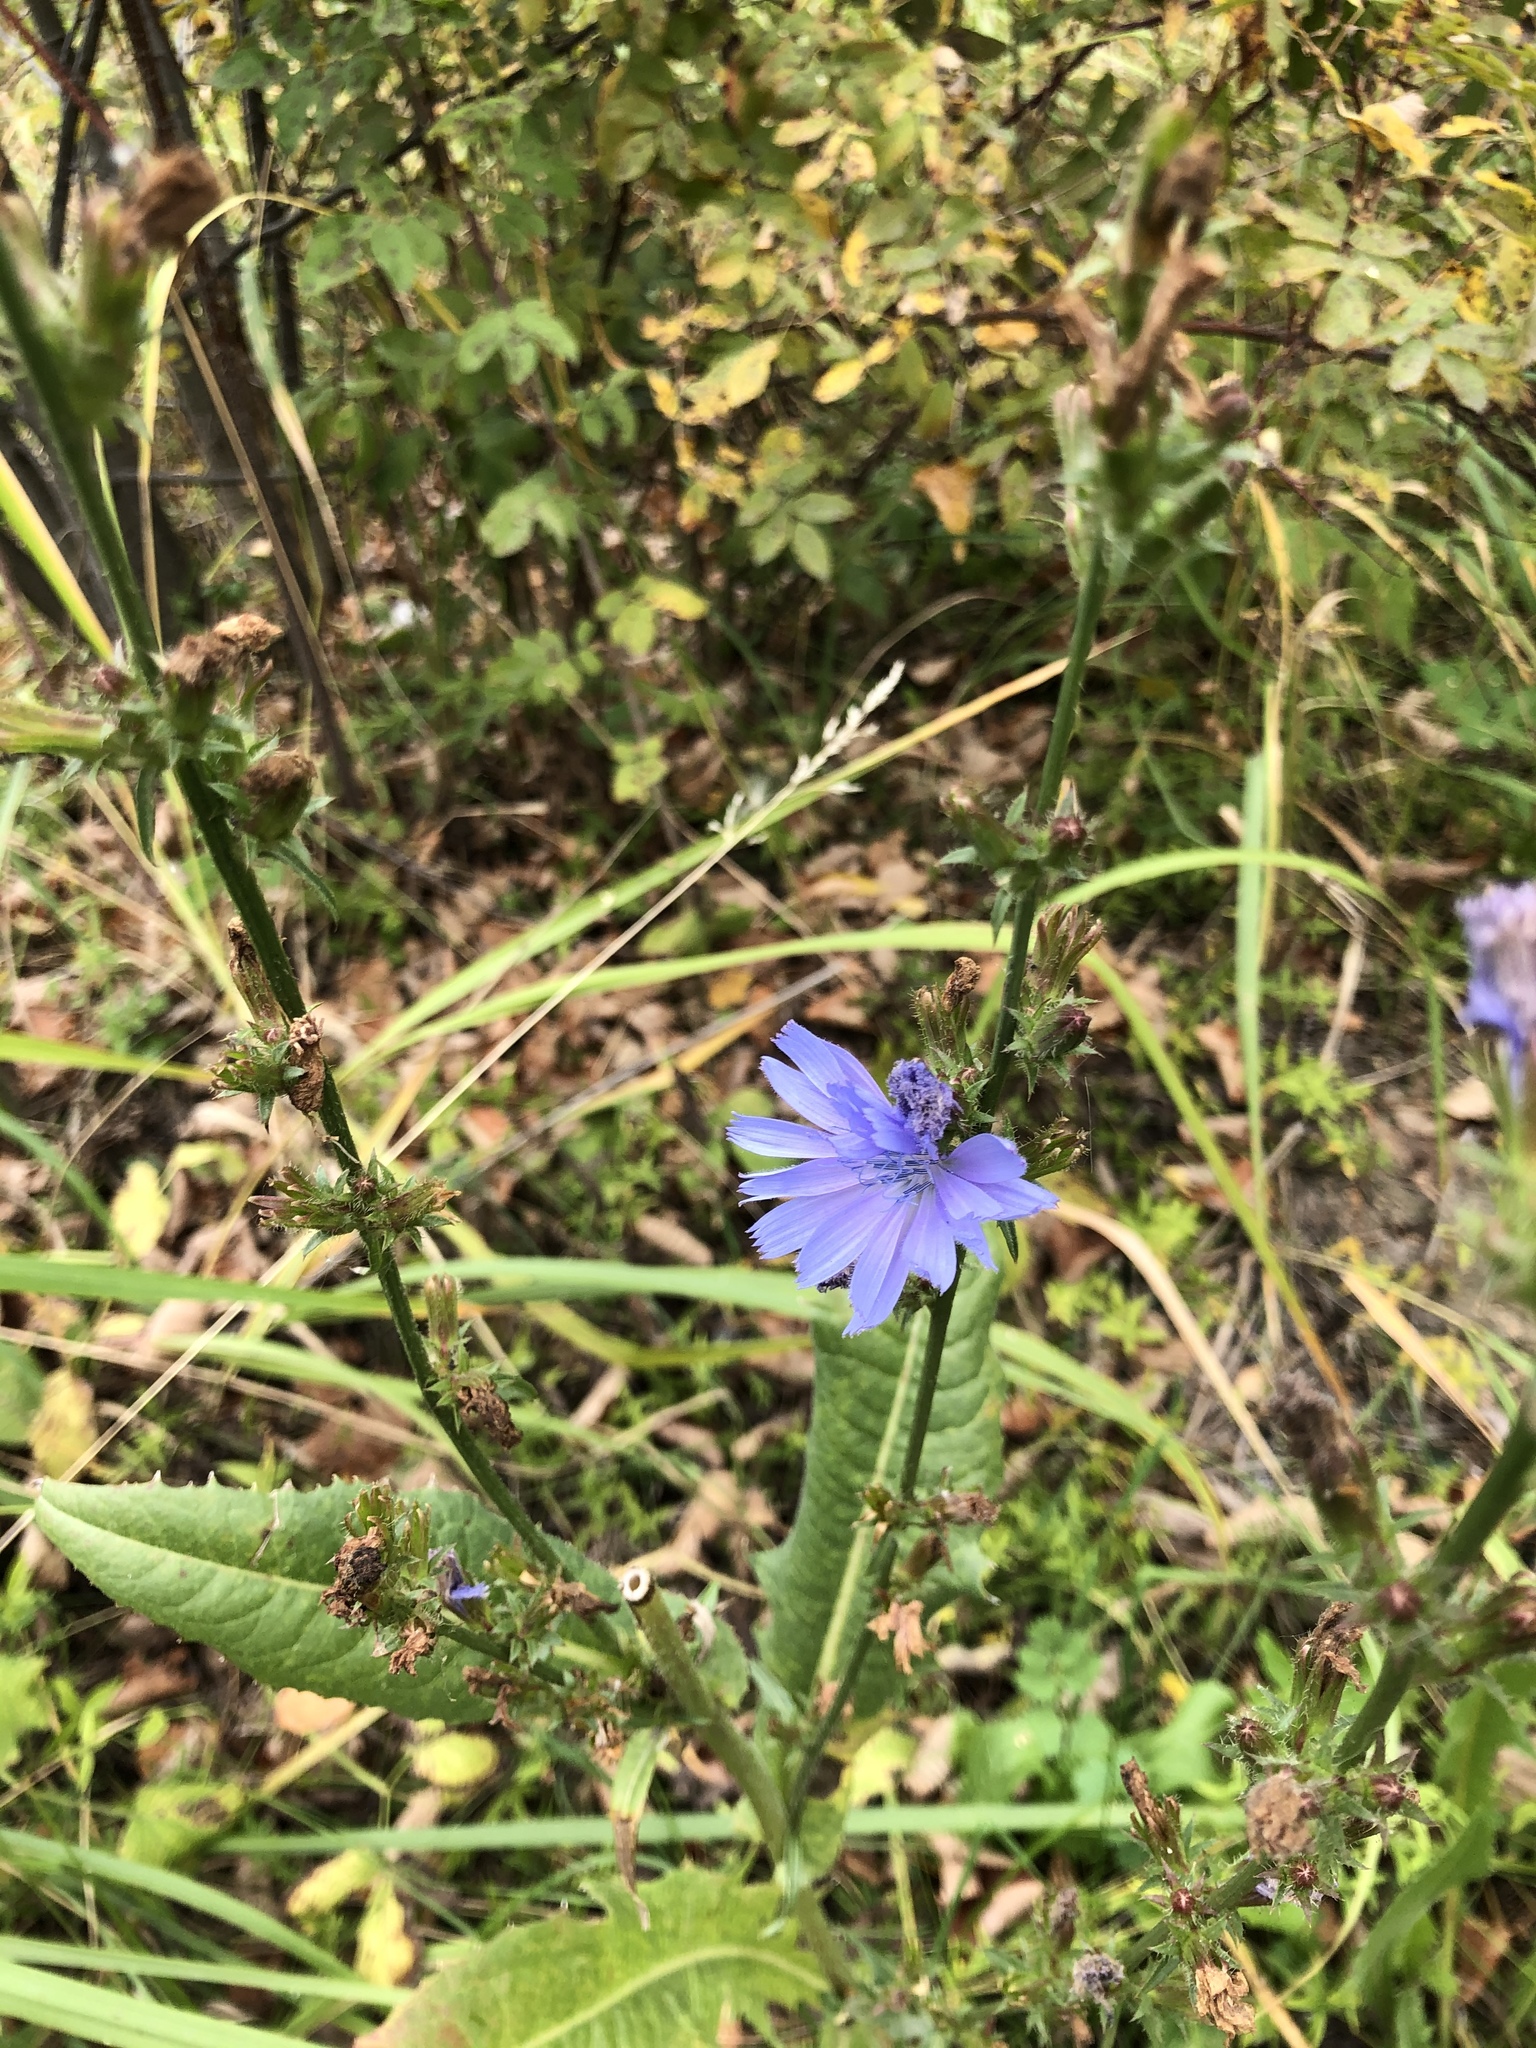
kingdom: Plantae
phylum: Tracheophyta
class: Magnoliopsida
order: Asterales
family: Asteraceae
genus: Cichorium
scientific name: Cichorium intybus
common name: Chicory
